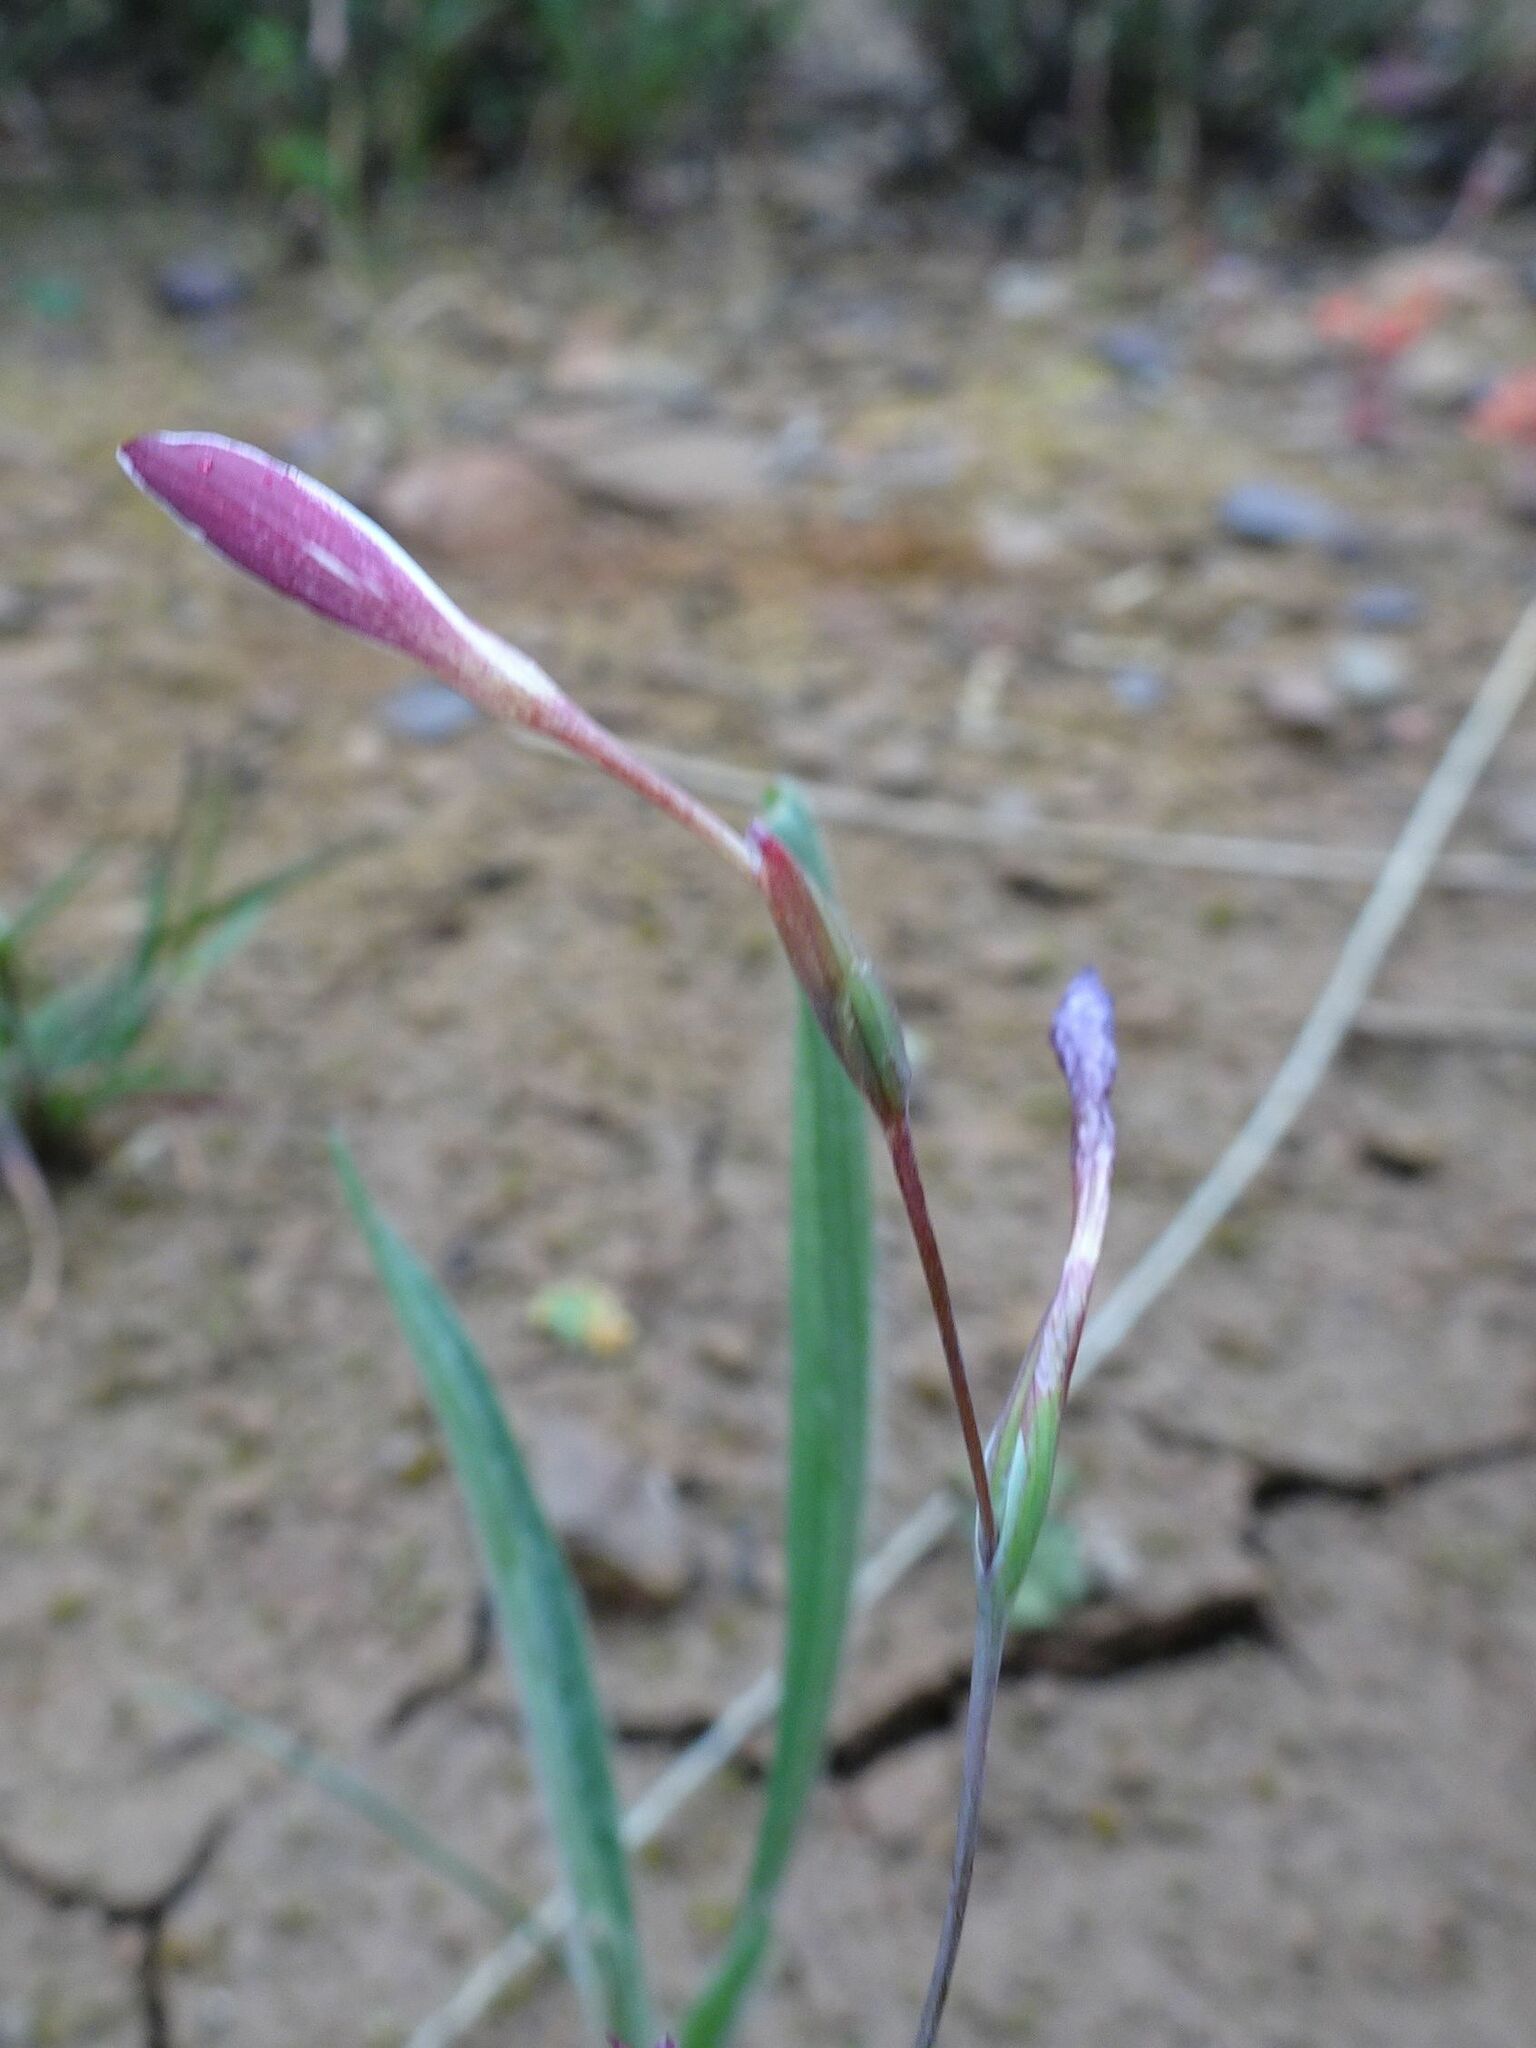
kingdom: Plantae
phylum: Tracheophyta
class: Liliopsida
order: Asparagales
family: Iridaceae
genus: Hesperantha
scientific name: Hesperantha falcata
